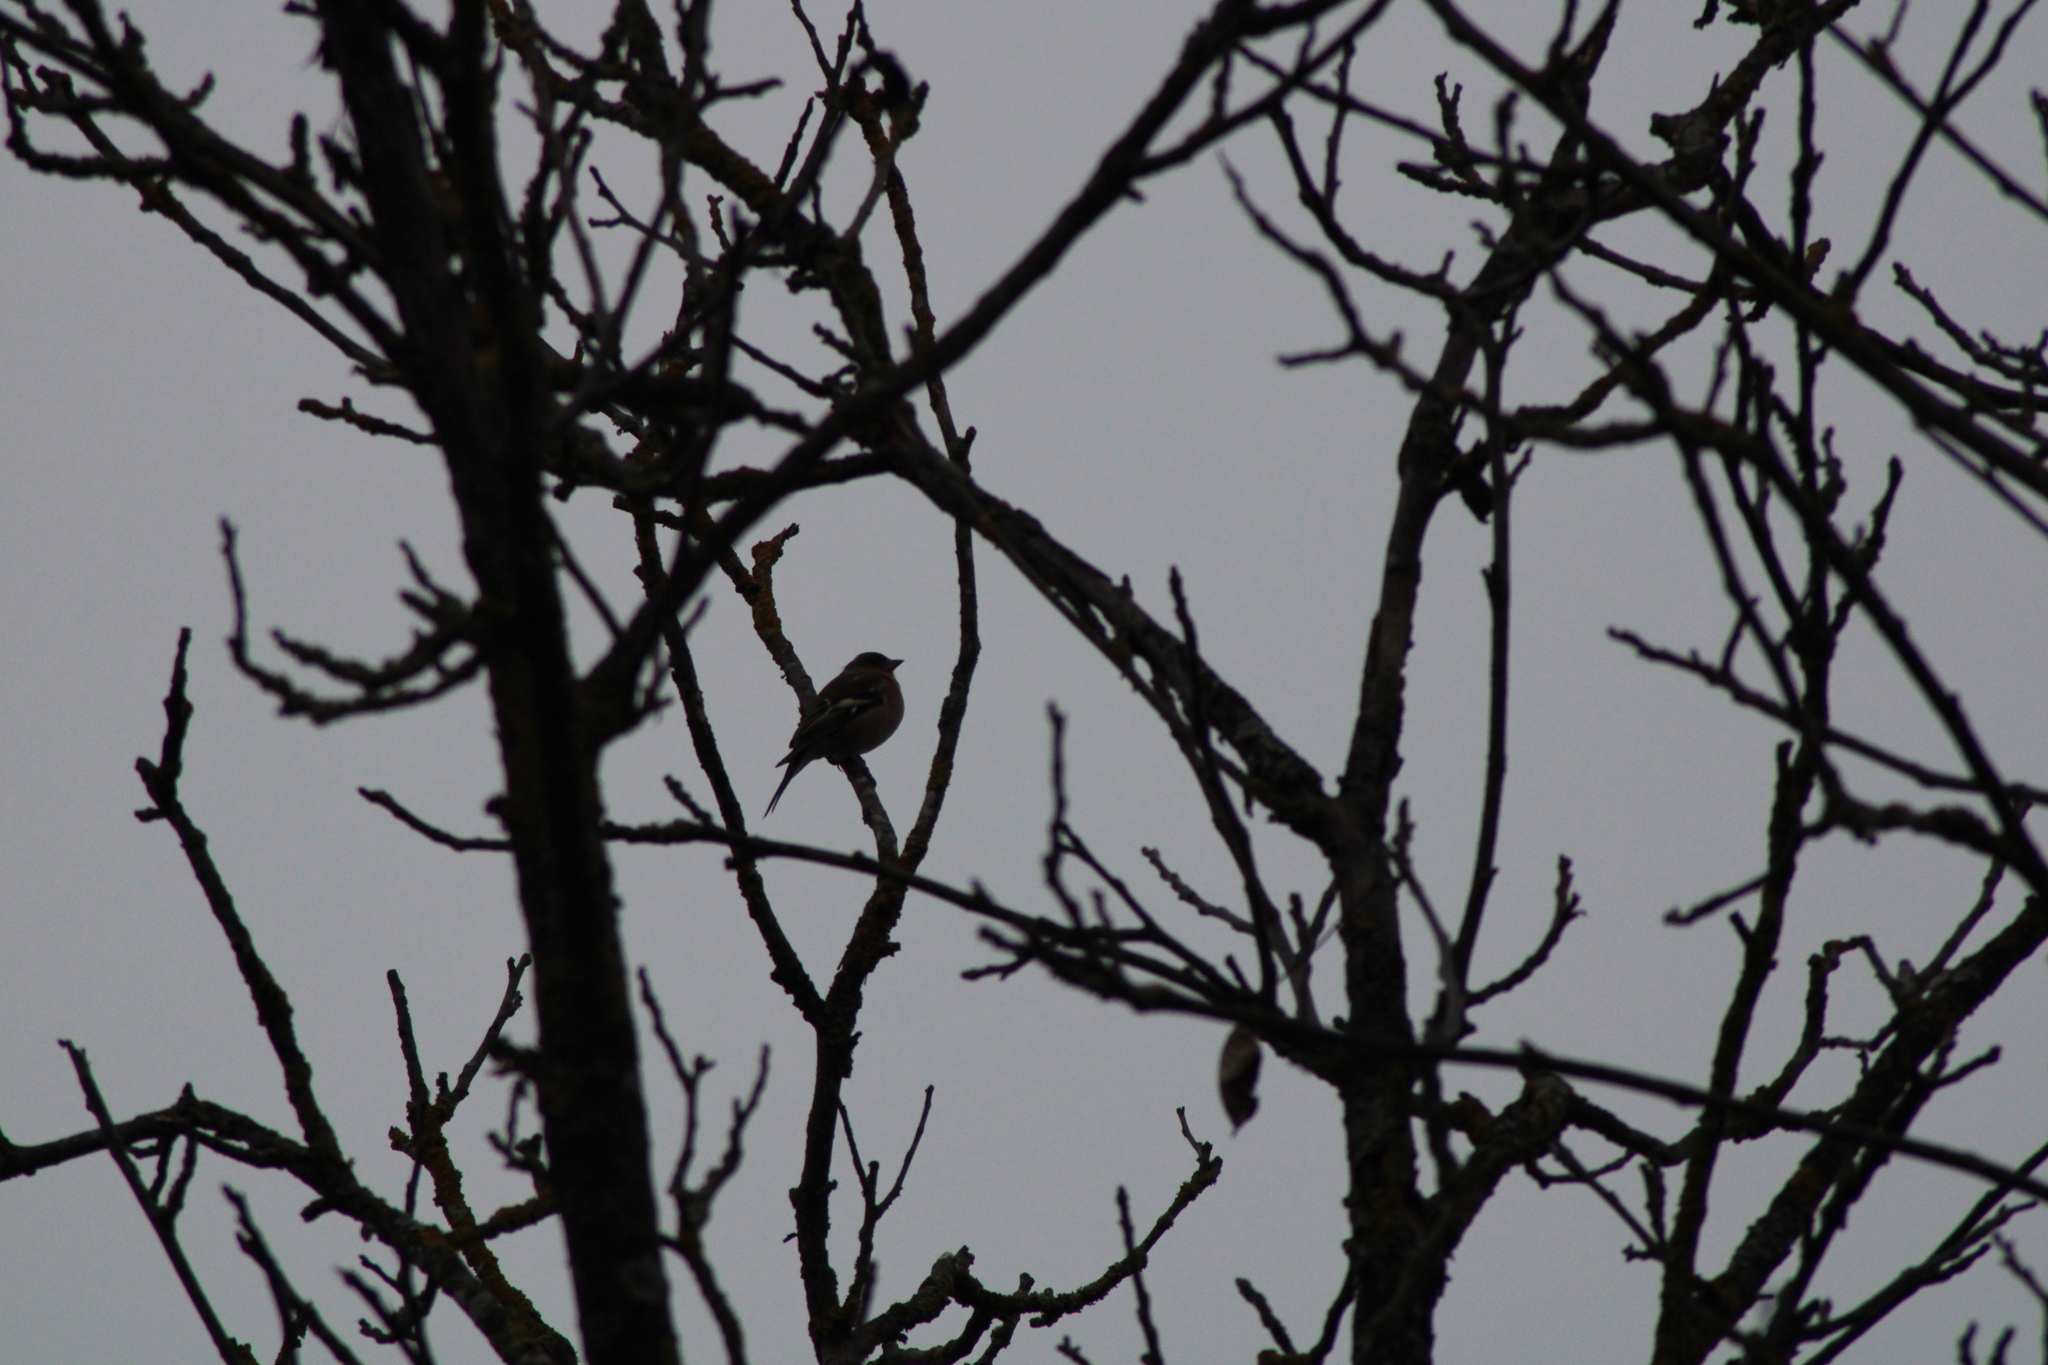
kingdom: Animalia
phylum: Chordata
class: Aves
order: Passeriformes
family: Fringillidae
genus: Fringilla
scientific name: Fringilla coelebs
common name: Common chaffinch
